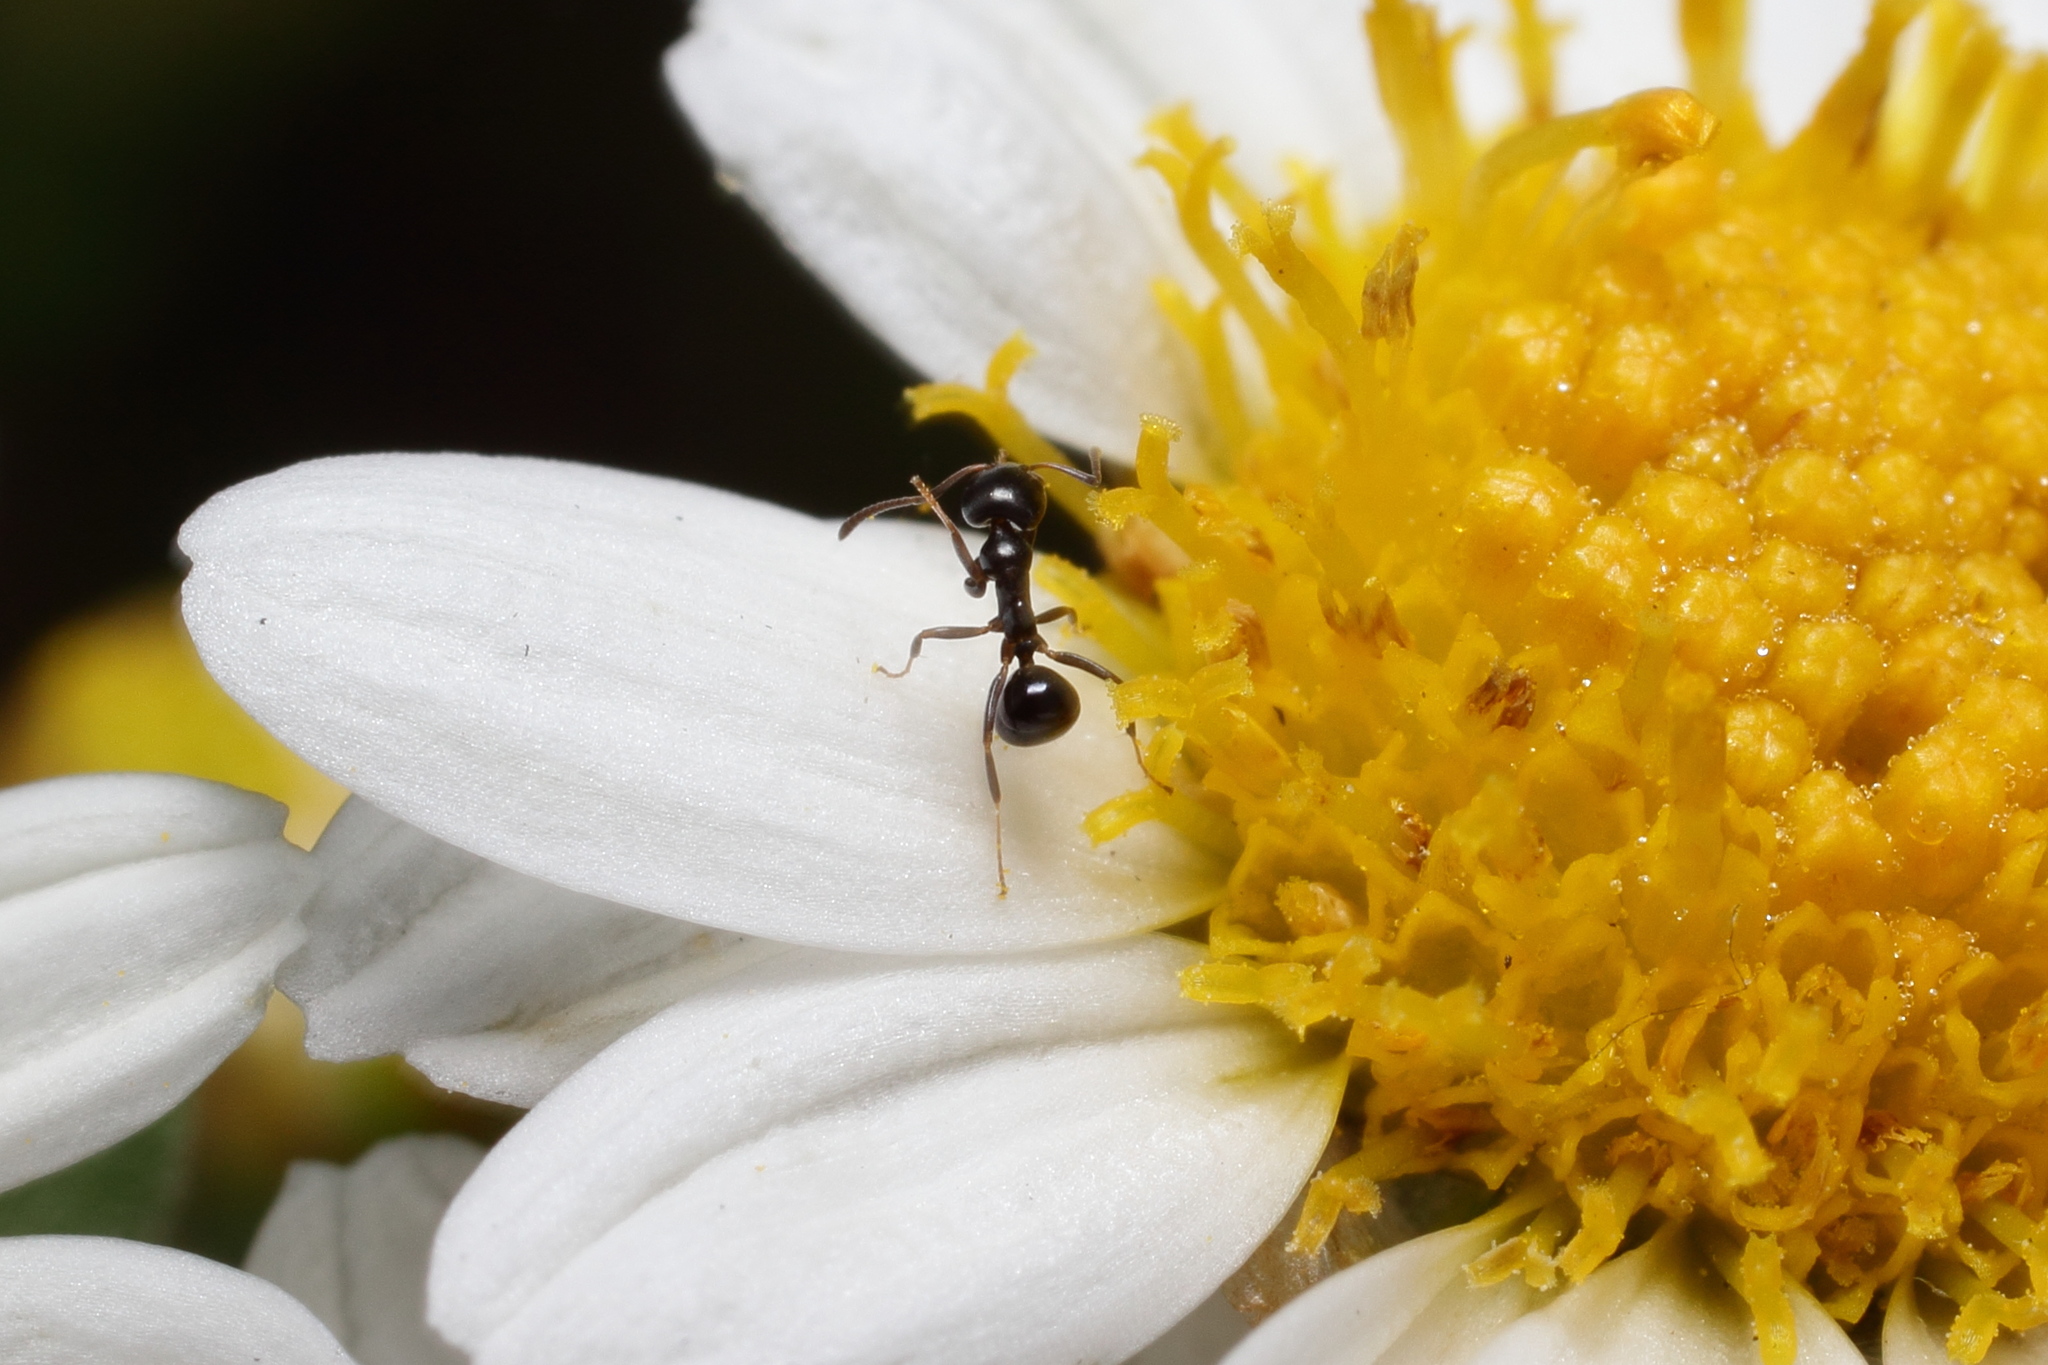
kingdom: Animalia
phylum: Arthropoda
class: Insecta
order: Hymenoptera
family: Formicidae
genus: Ochetellus
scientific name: Ochetellus glaber
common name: Ant
